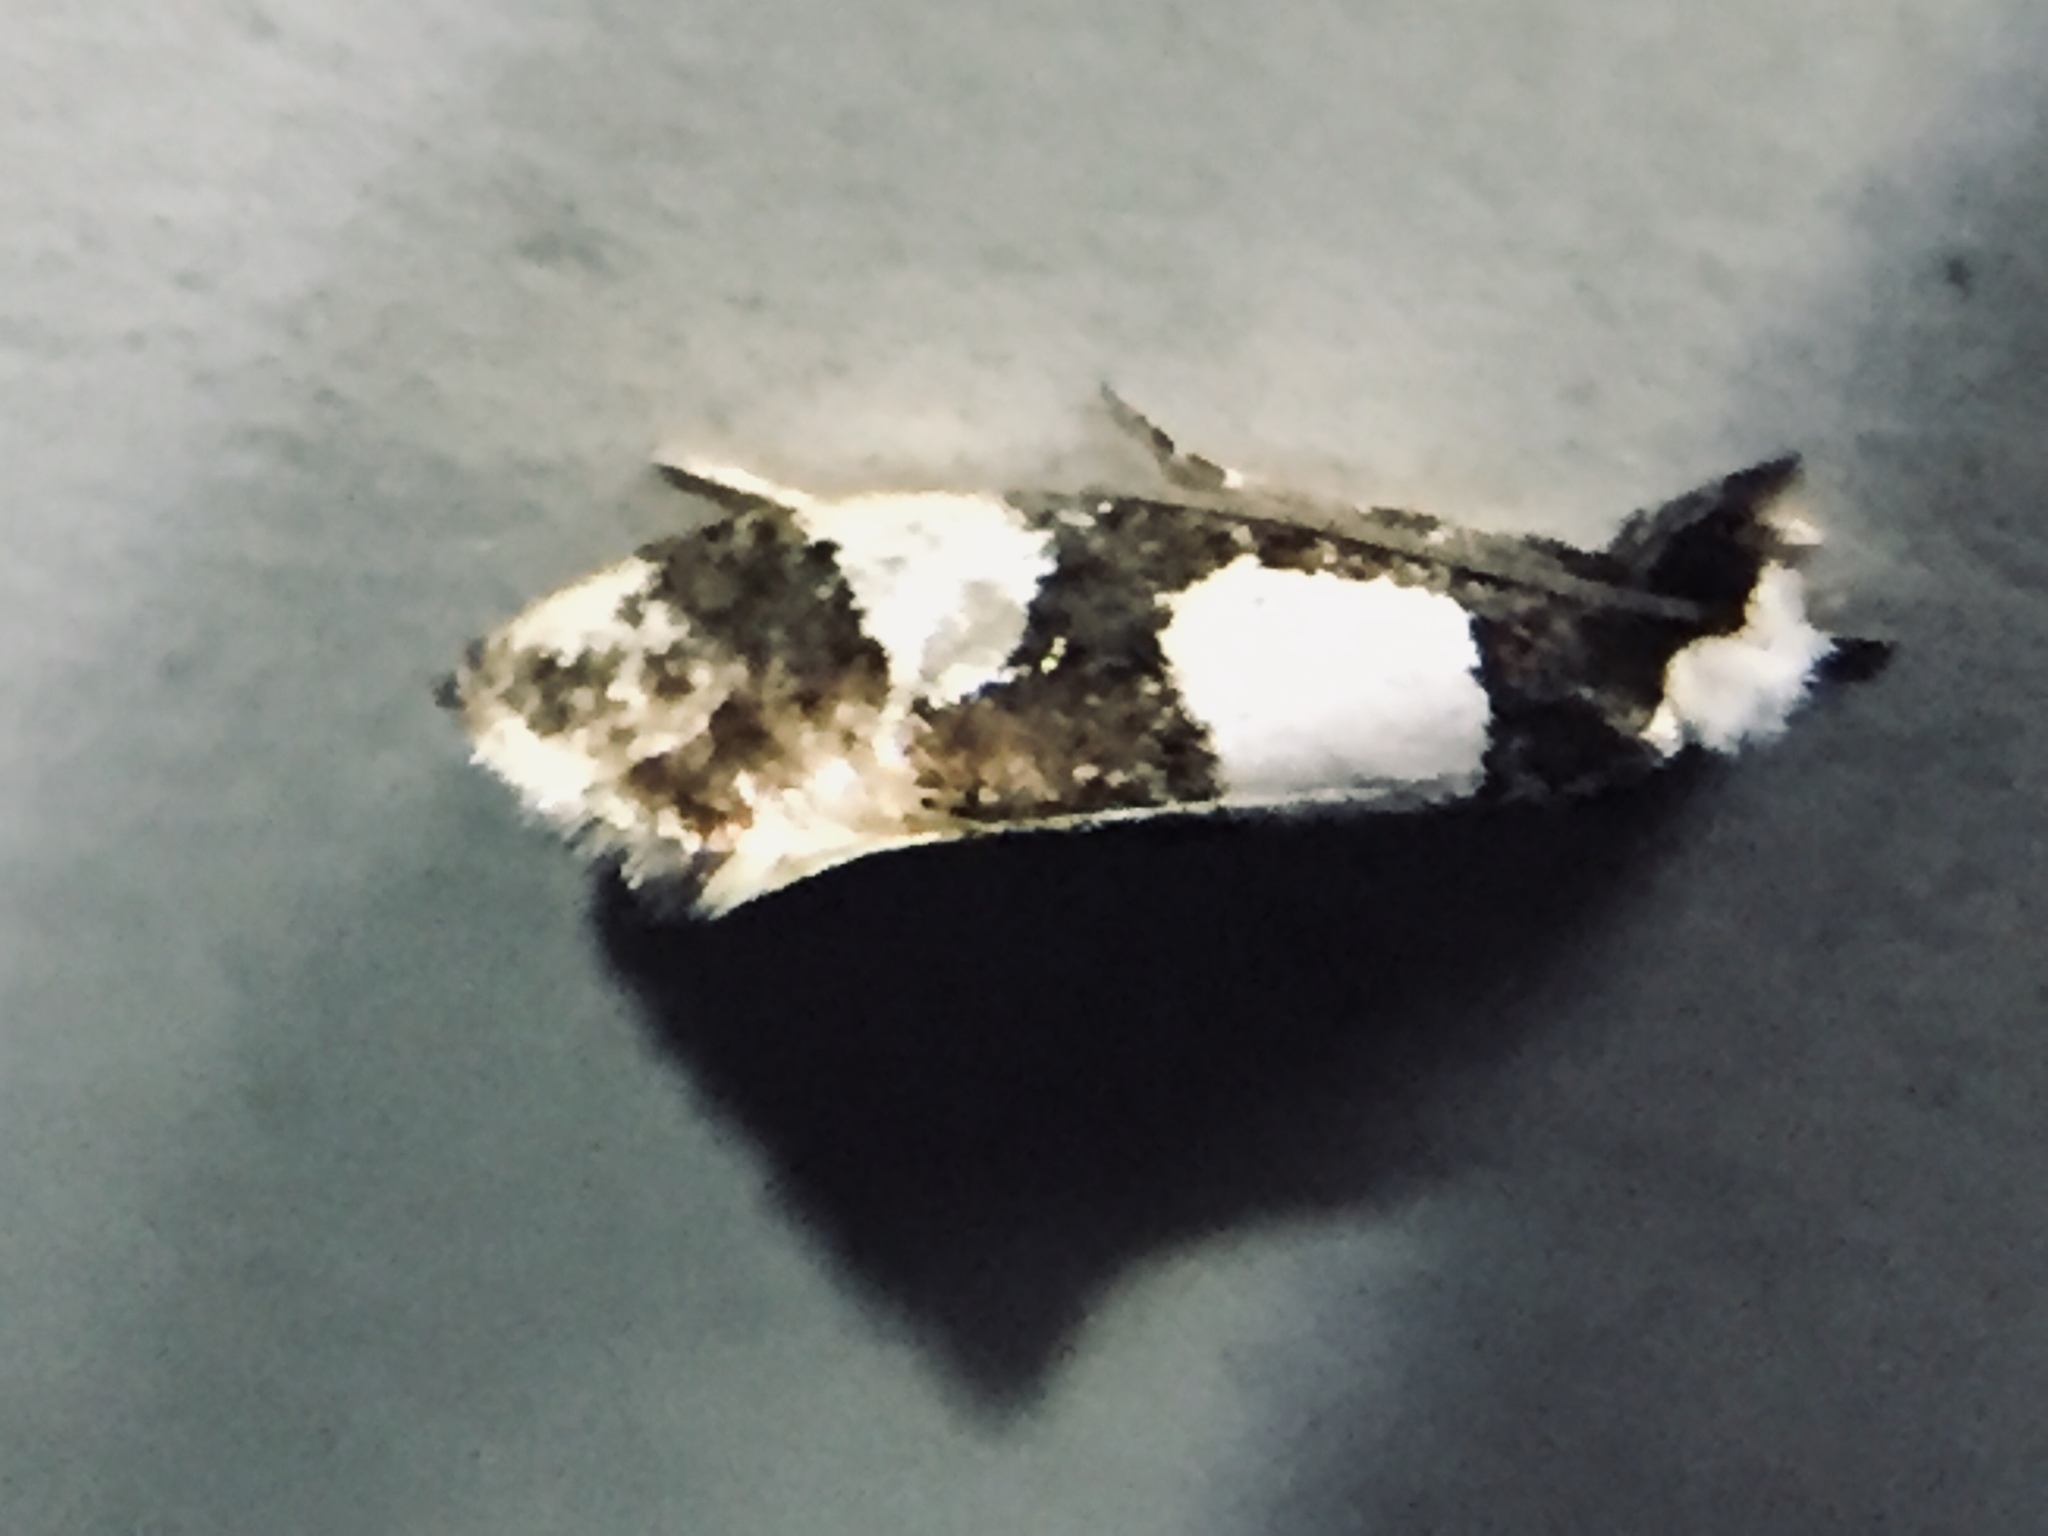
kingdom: Animalia
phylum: Arthropoda
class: Insecta
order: Lepidoptera
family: Tineidae
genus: Monopis
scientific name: Monopis icterogastra
